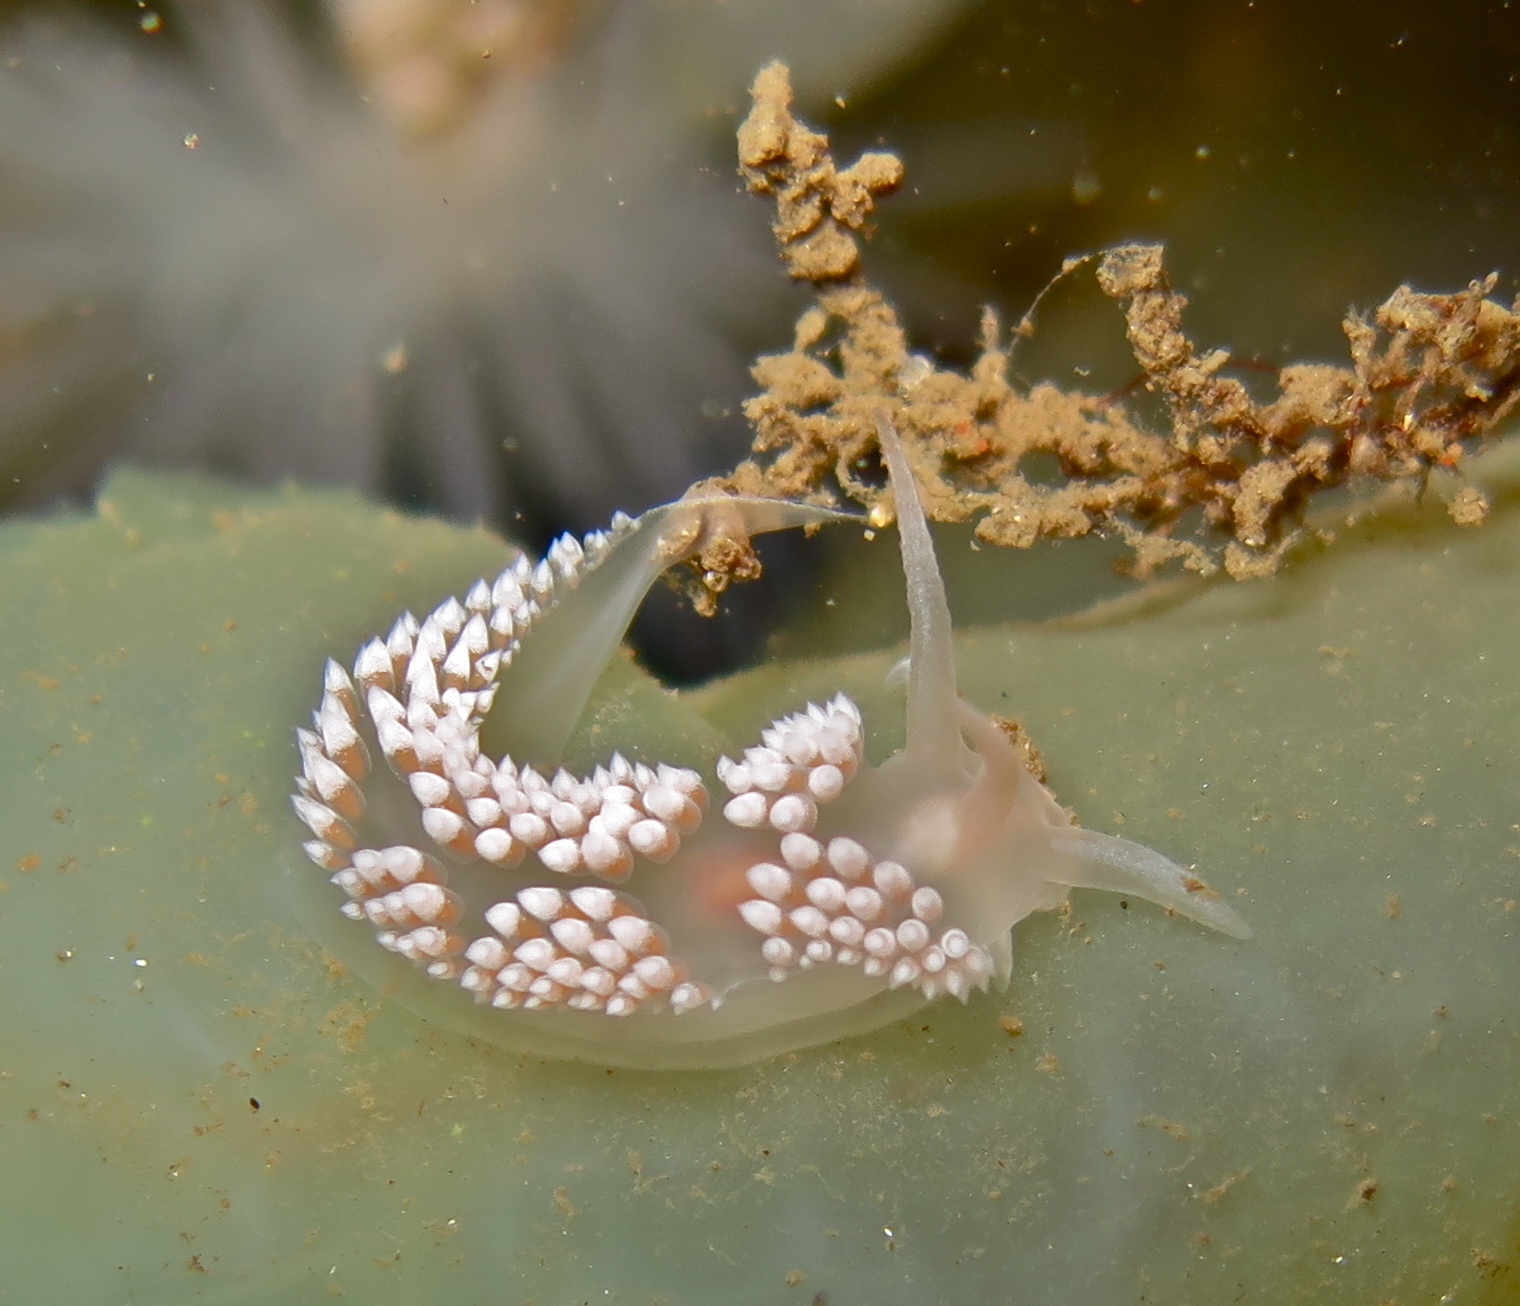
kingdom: Animalia
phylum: Mollusca
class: Gastropoda
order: Nudibranchia
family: Coryphellidae
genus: Coryphella
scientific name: Coryphella verrucosa
